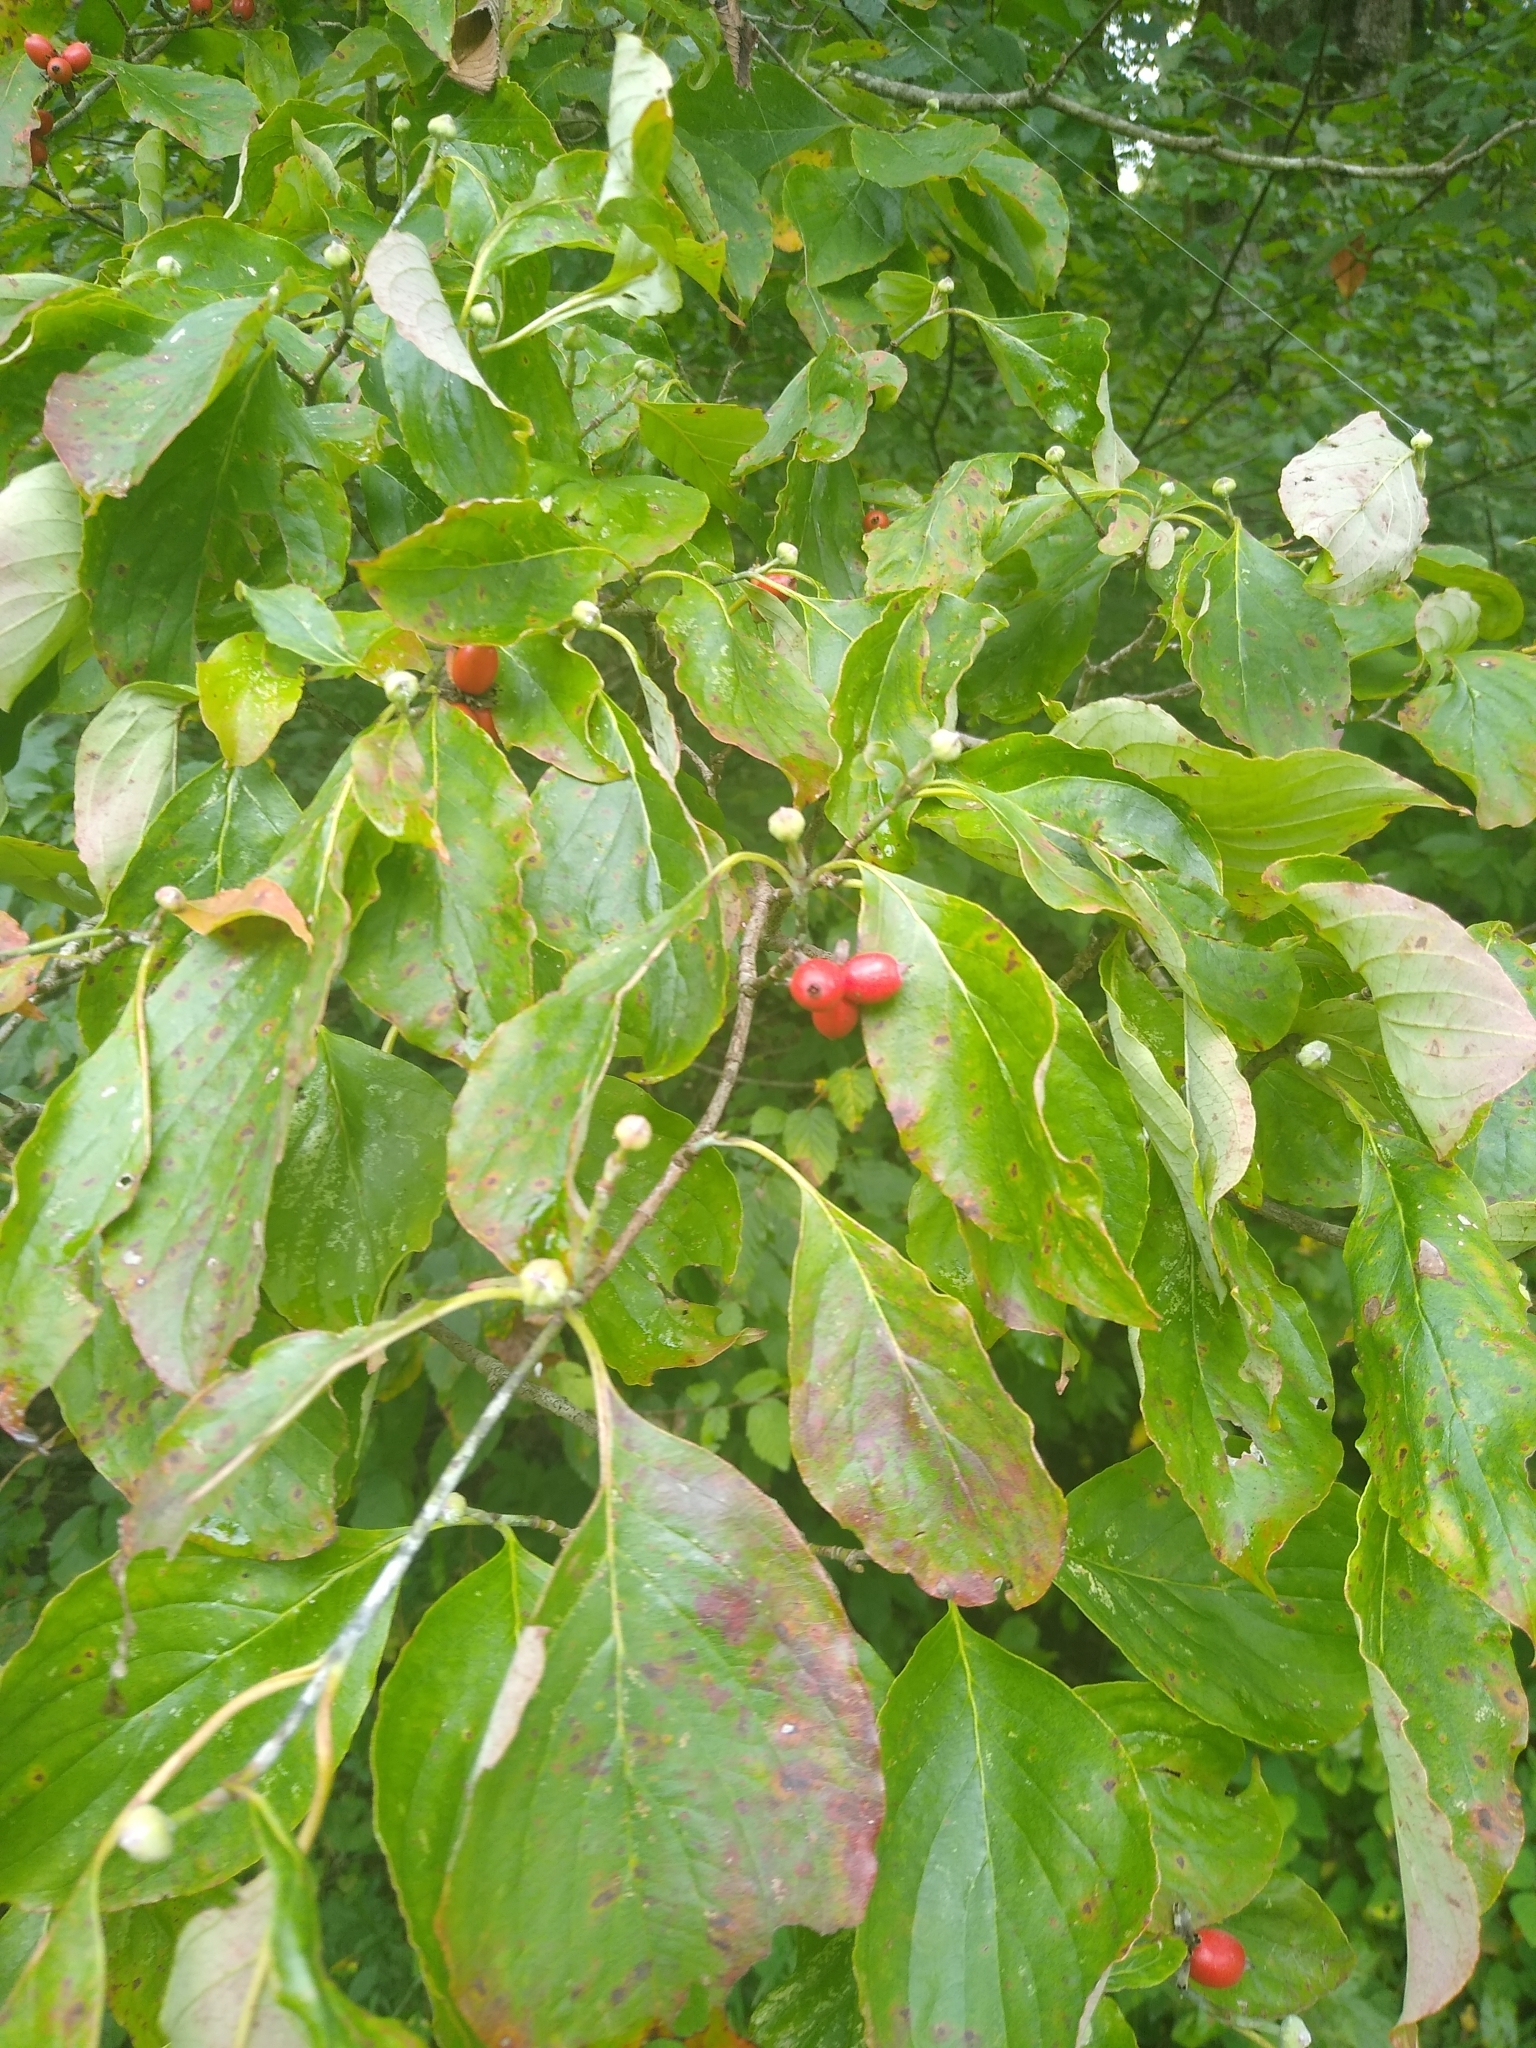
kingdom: Plantae
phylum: Tracheophyta
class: Magnoliopsida
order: Cornales
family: Cornaceae
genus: Cornus
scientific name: Cornus florida
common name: Flowering dogwood
